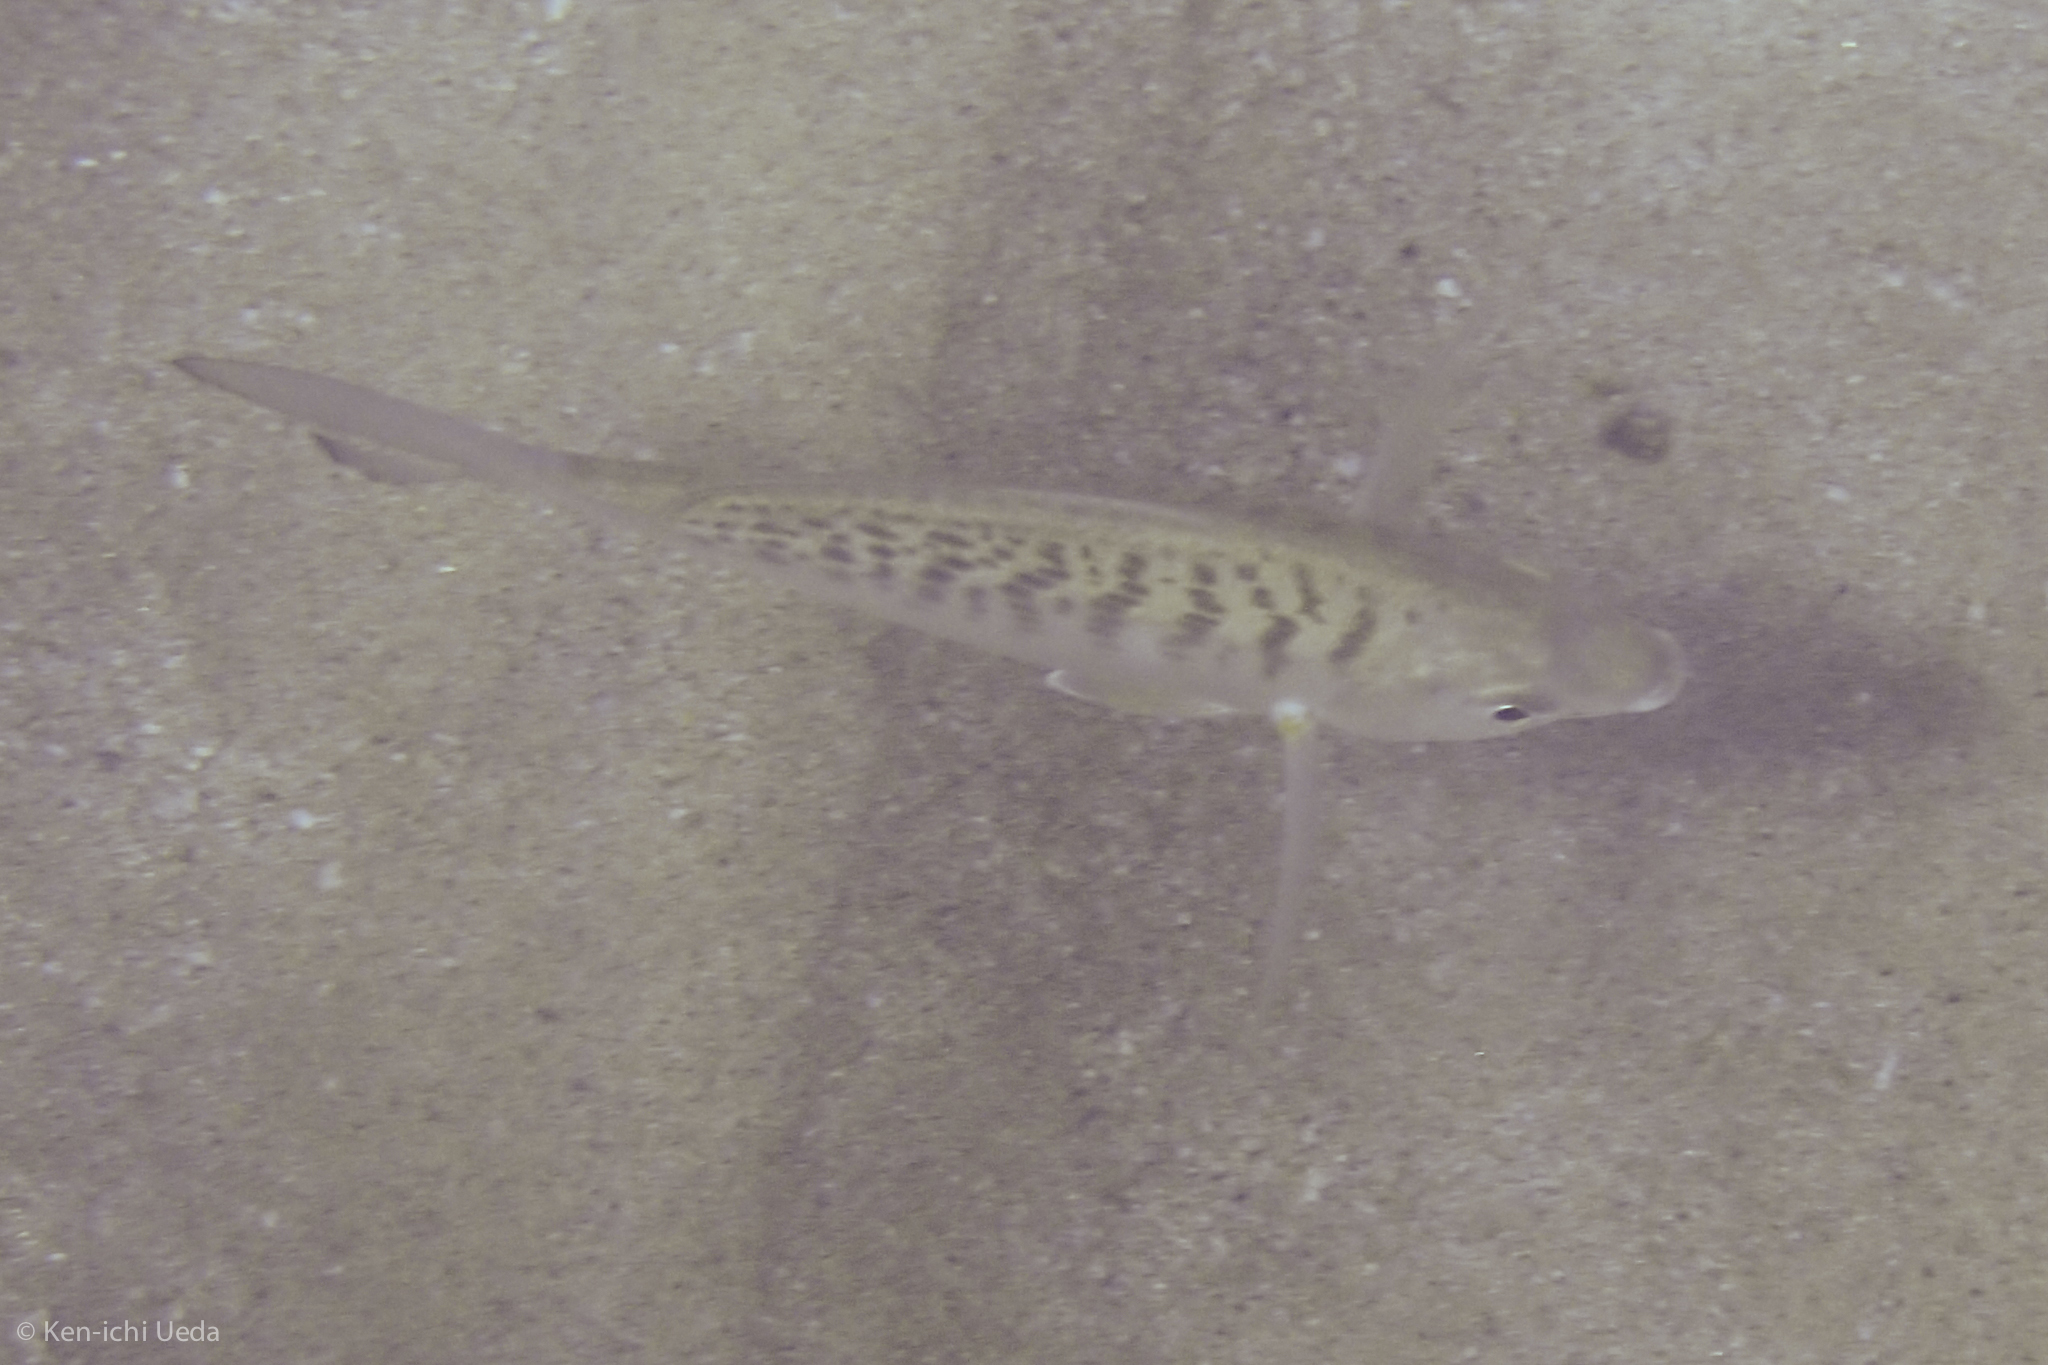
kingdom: Animalia
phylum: Chordata
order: Perciformes
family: Gerreidae
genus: Gerres
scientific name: Gerres simillimus
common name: Yellow fin mojarra
